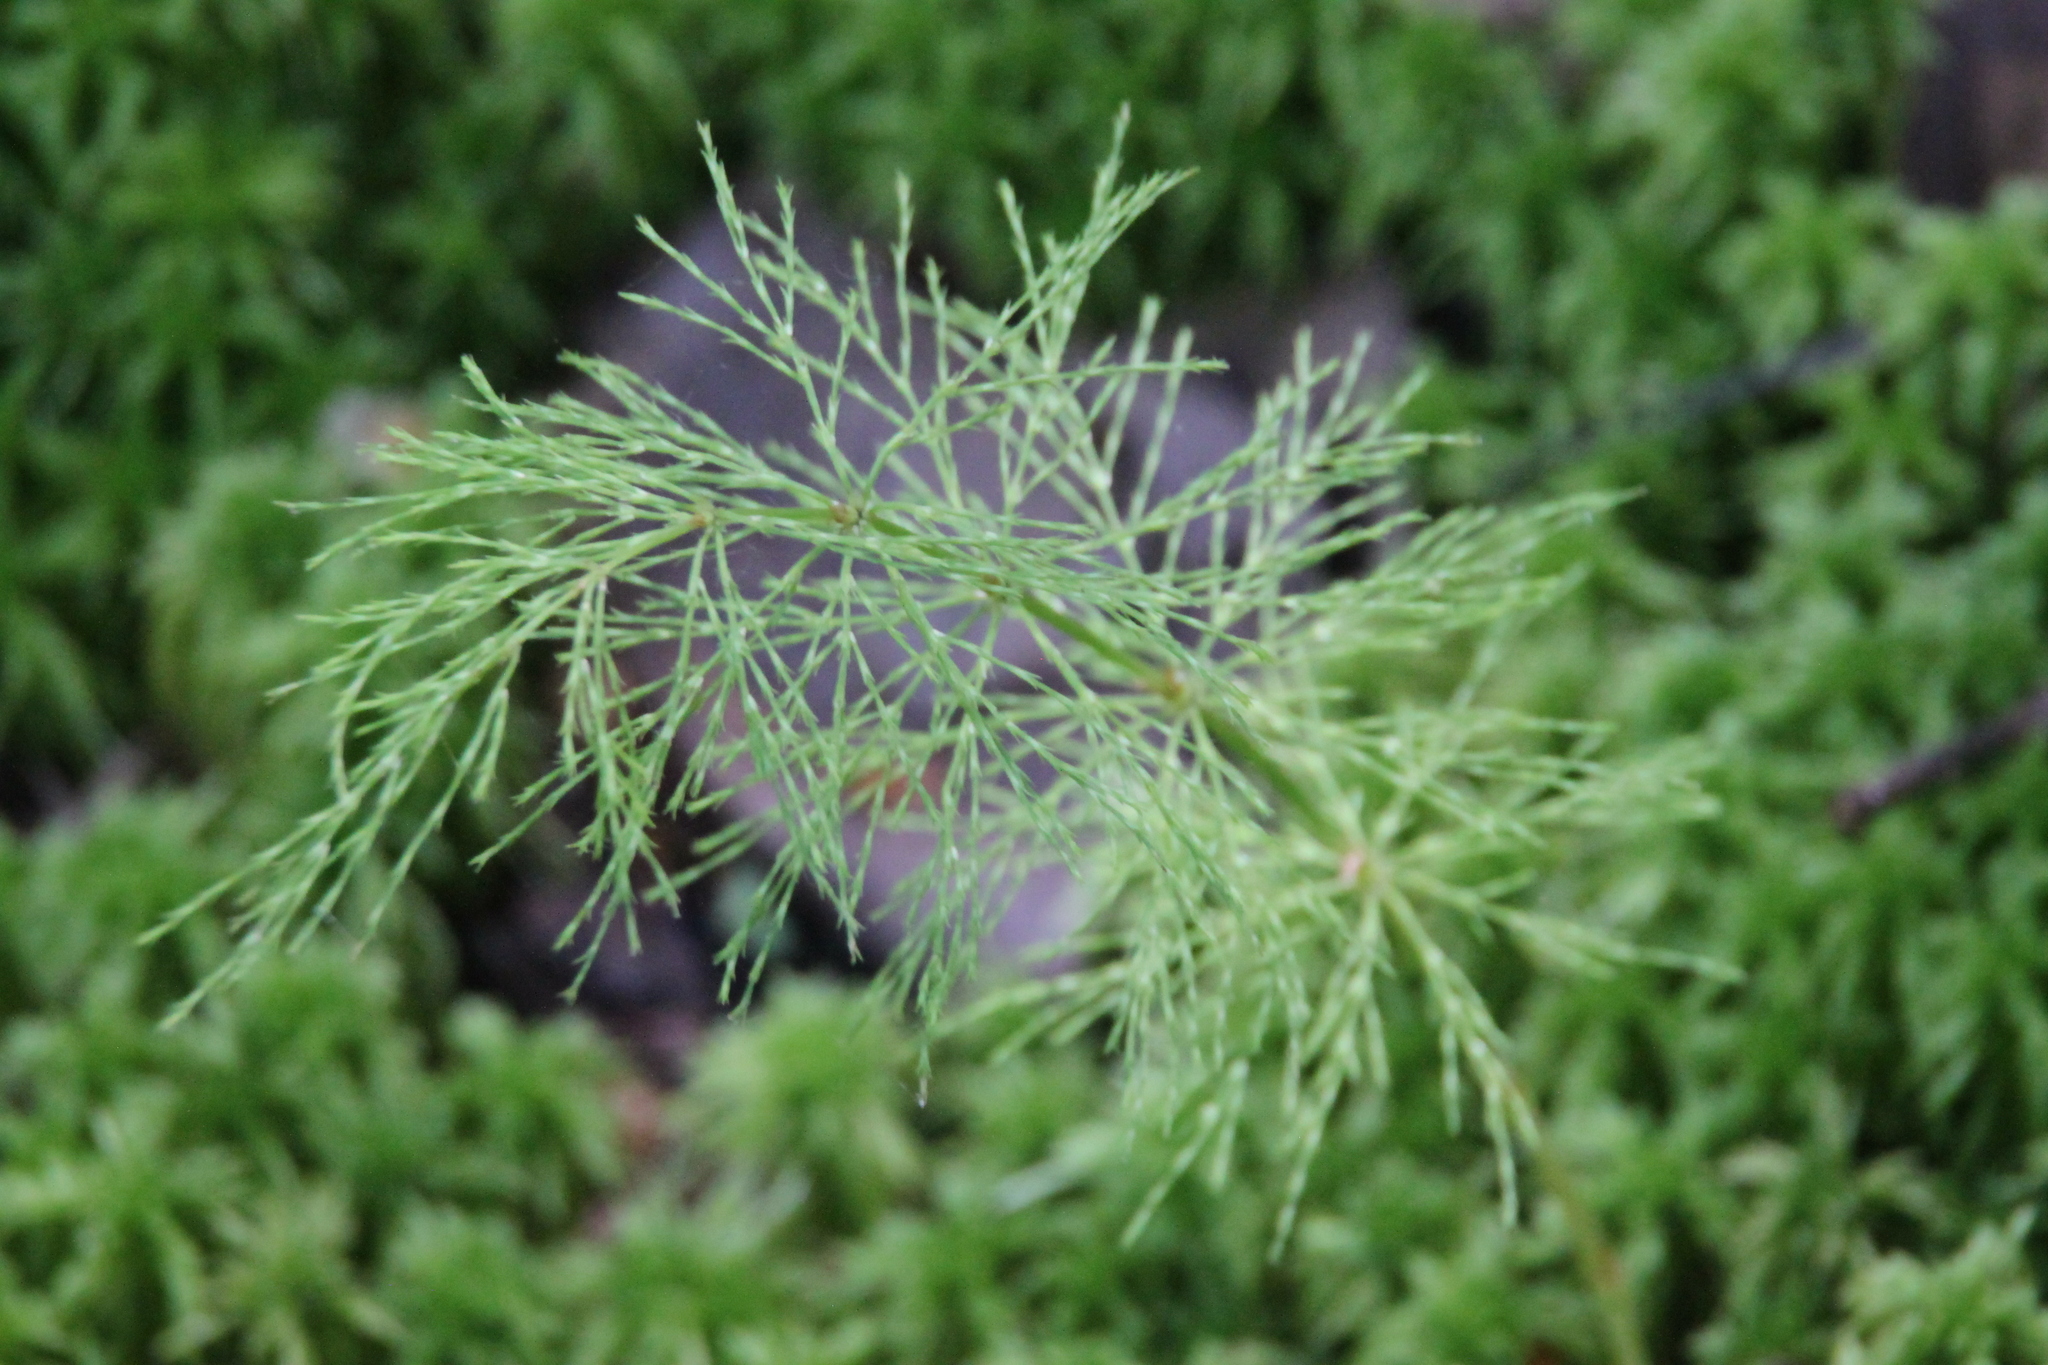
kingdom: Plantae
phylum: Tracheophyta
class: Polypodiopsida
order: Equisetales
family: Equisetaceae
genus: Equisetum
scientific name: Equisetum sylvaticum
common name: Wood horsetail
